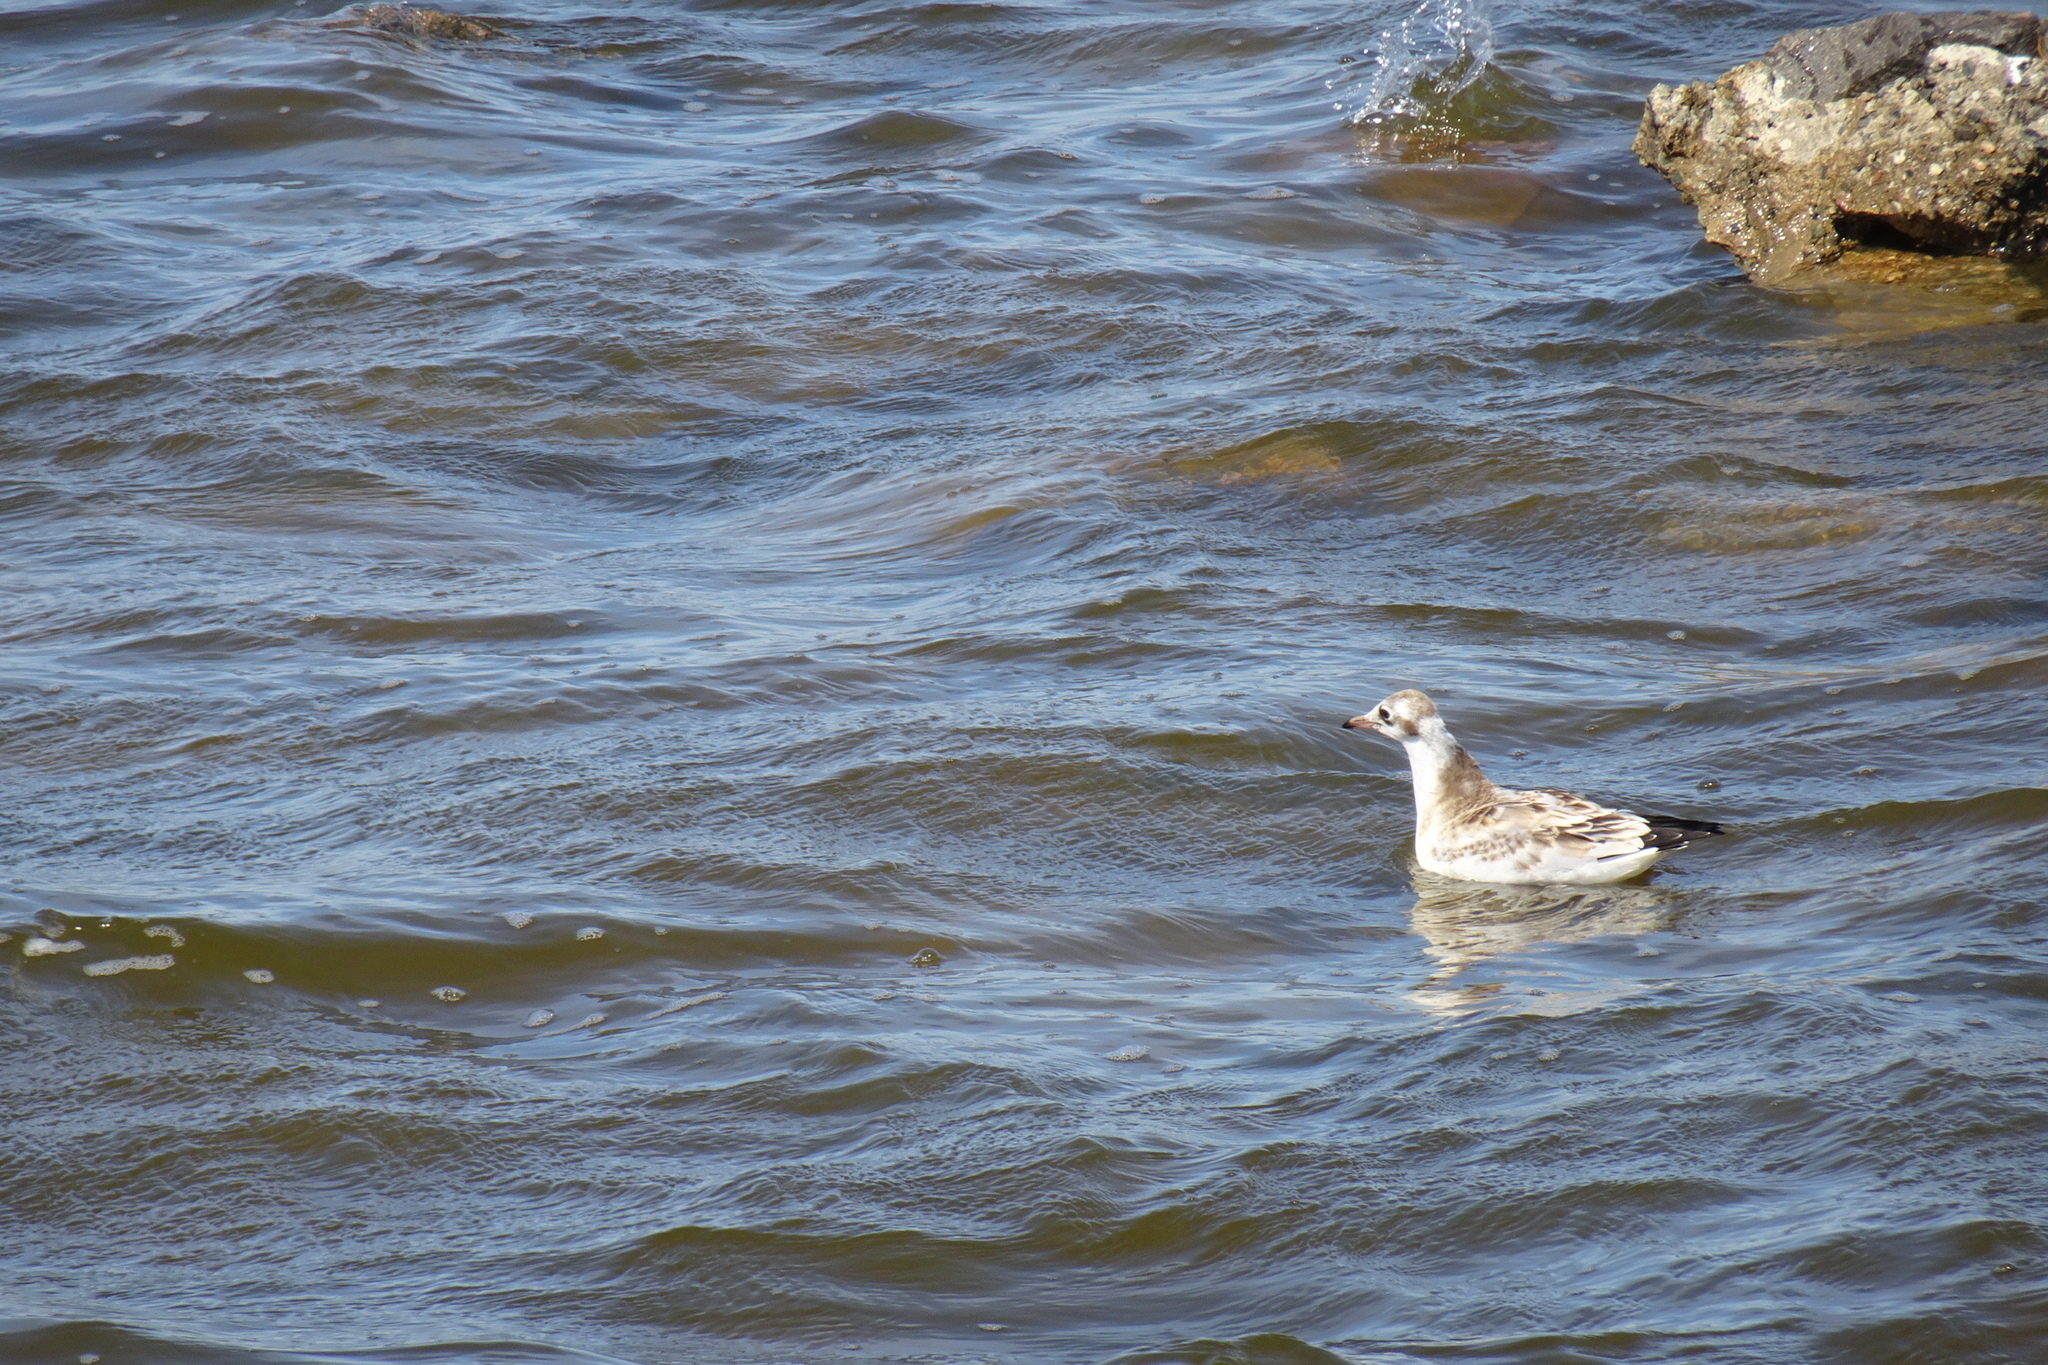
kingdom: Animalia
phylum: Chordata
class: Aves
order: Charadriiformes
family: Laridae
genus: Chroicocephalus
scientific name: Chroicocephalus ridibundus
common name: Black-headed gull
